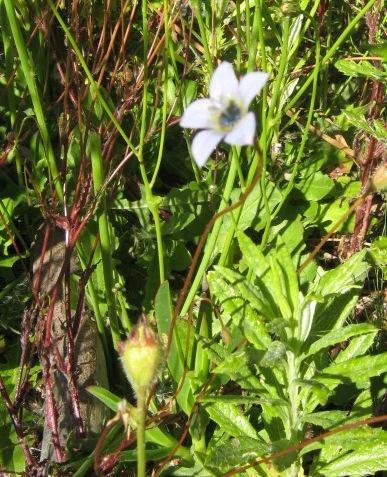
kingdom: Plantae
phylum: Tracheophyta
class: Magnoliopsida
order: Asterales
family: Campanulaceae
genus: Wahlenbergia
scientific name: Wahlenbergia capensis
